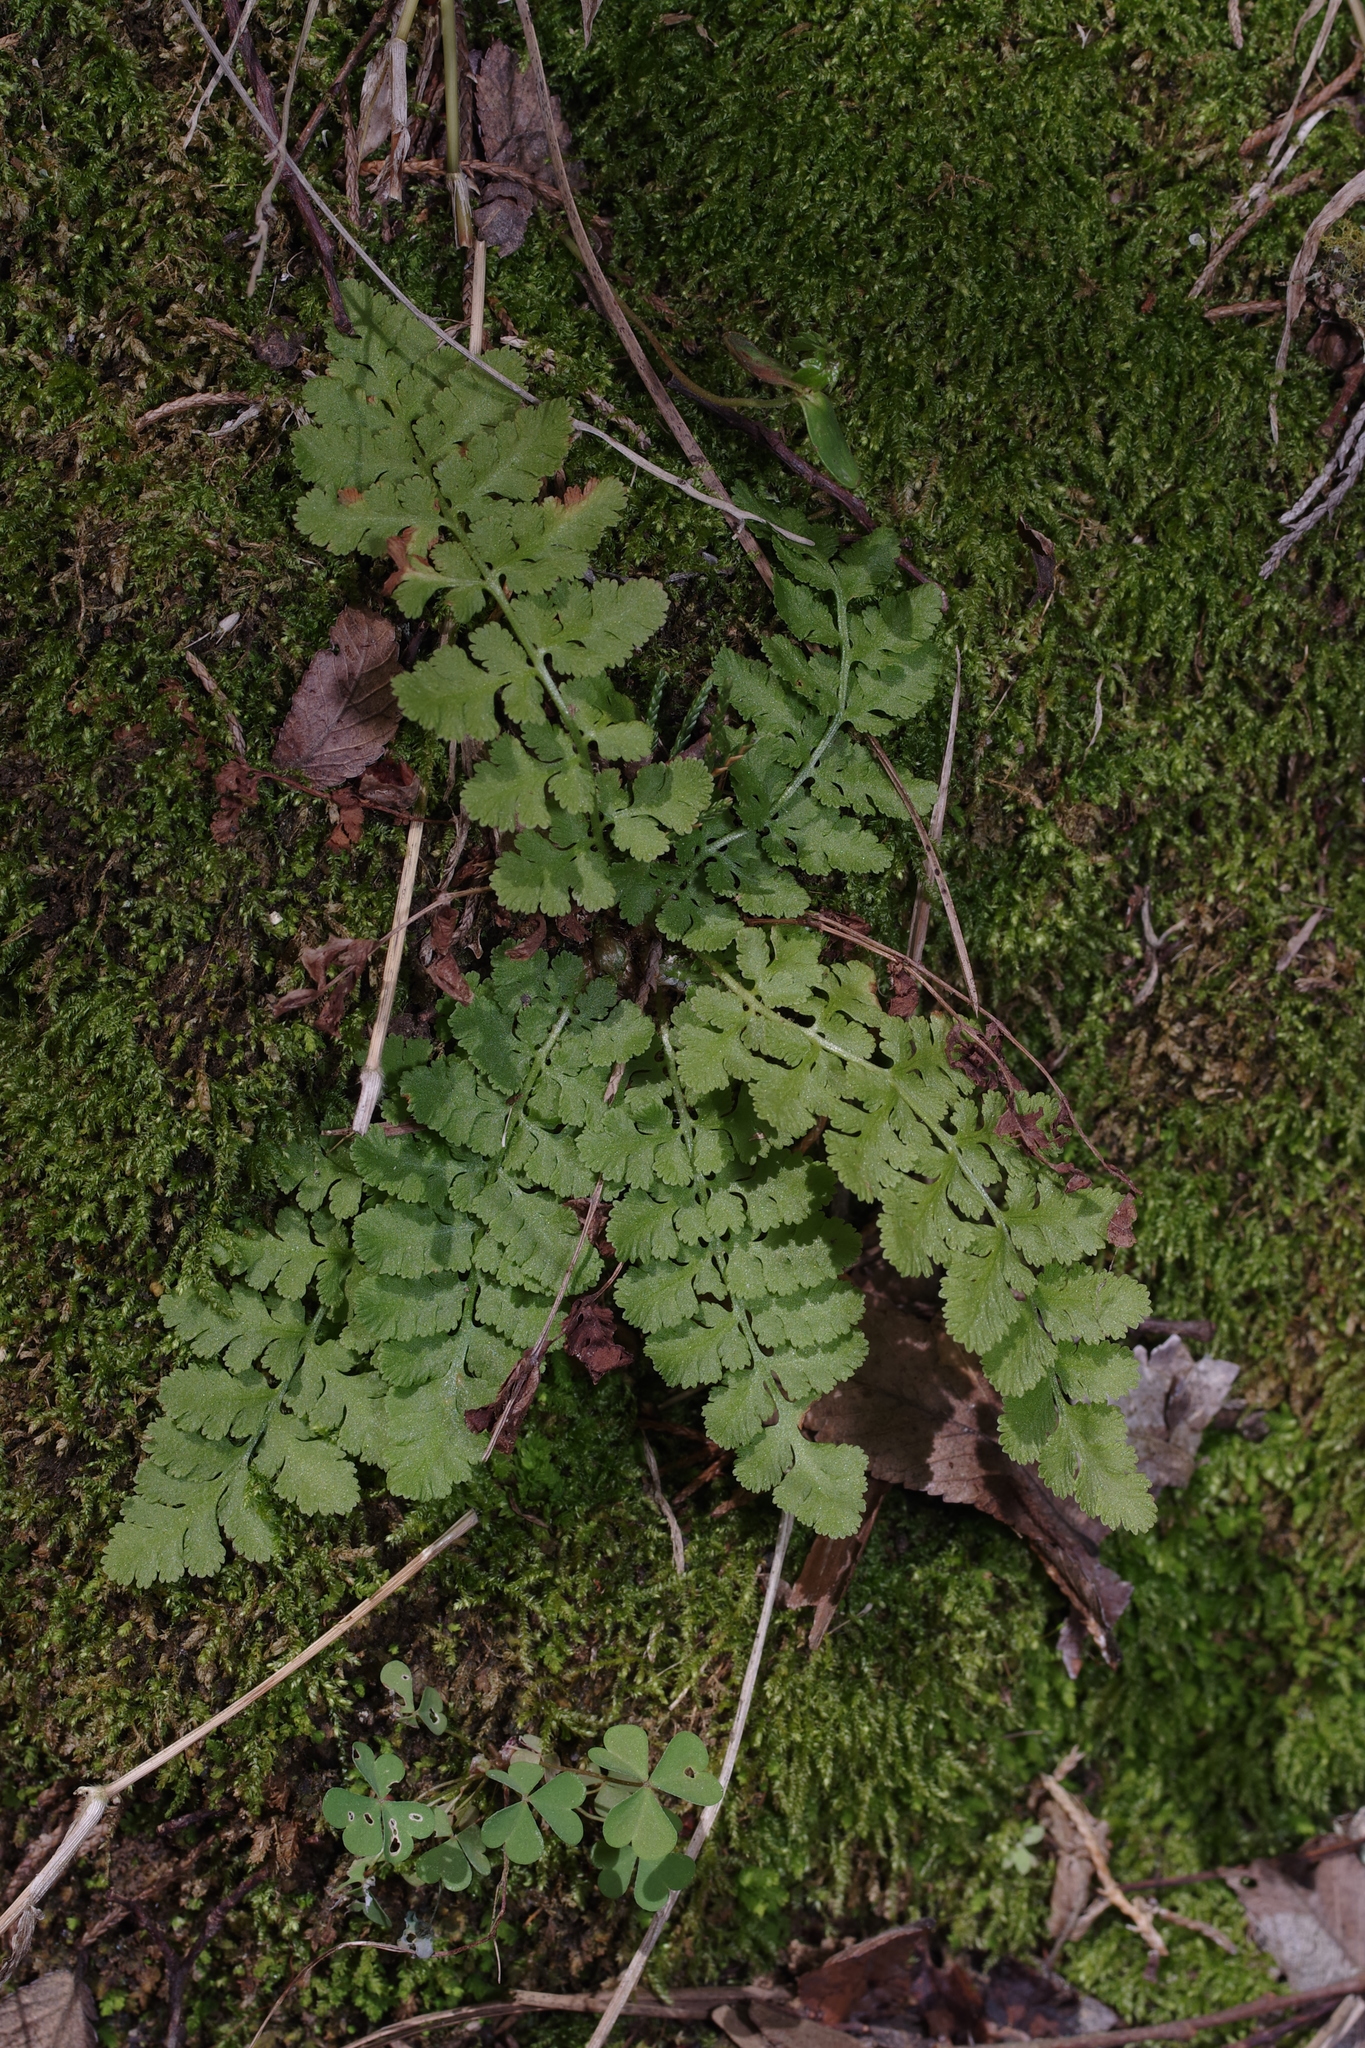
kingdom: Plantae
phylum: Tracheophyta
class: Polypodiopsida
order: Polypodiales
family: Woodsiaceae
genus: Physematium
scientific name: Physematium obtusum
